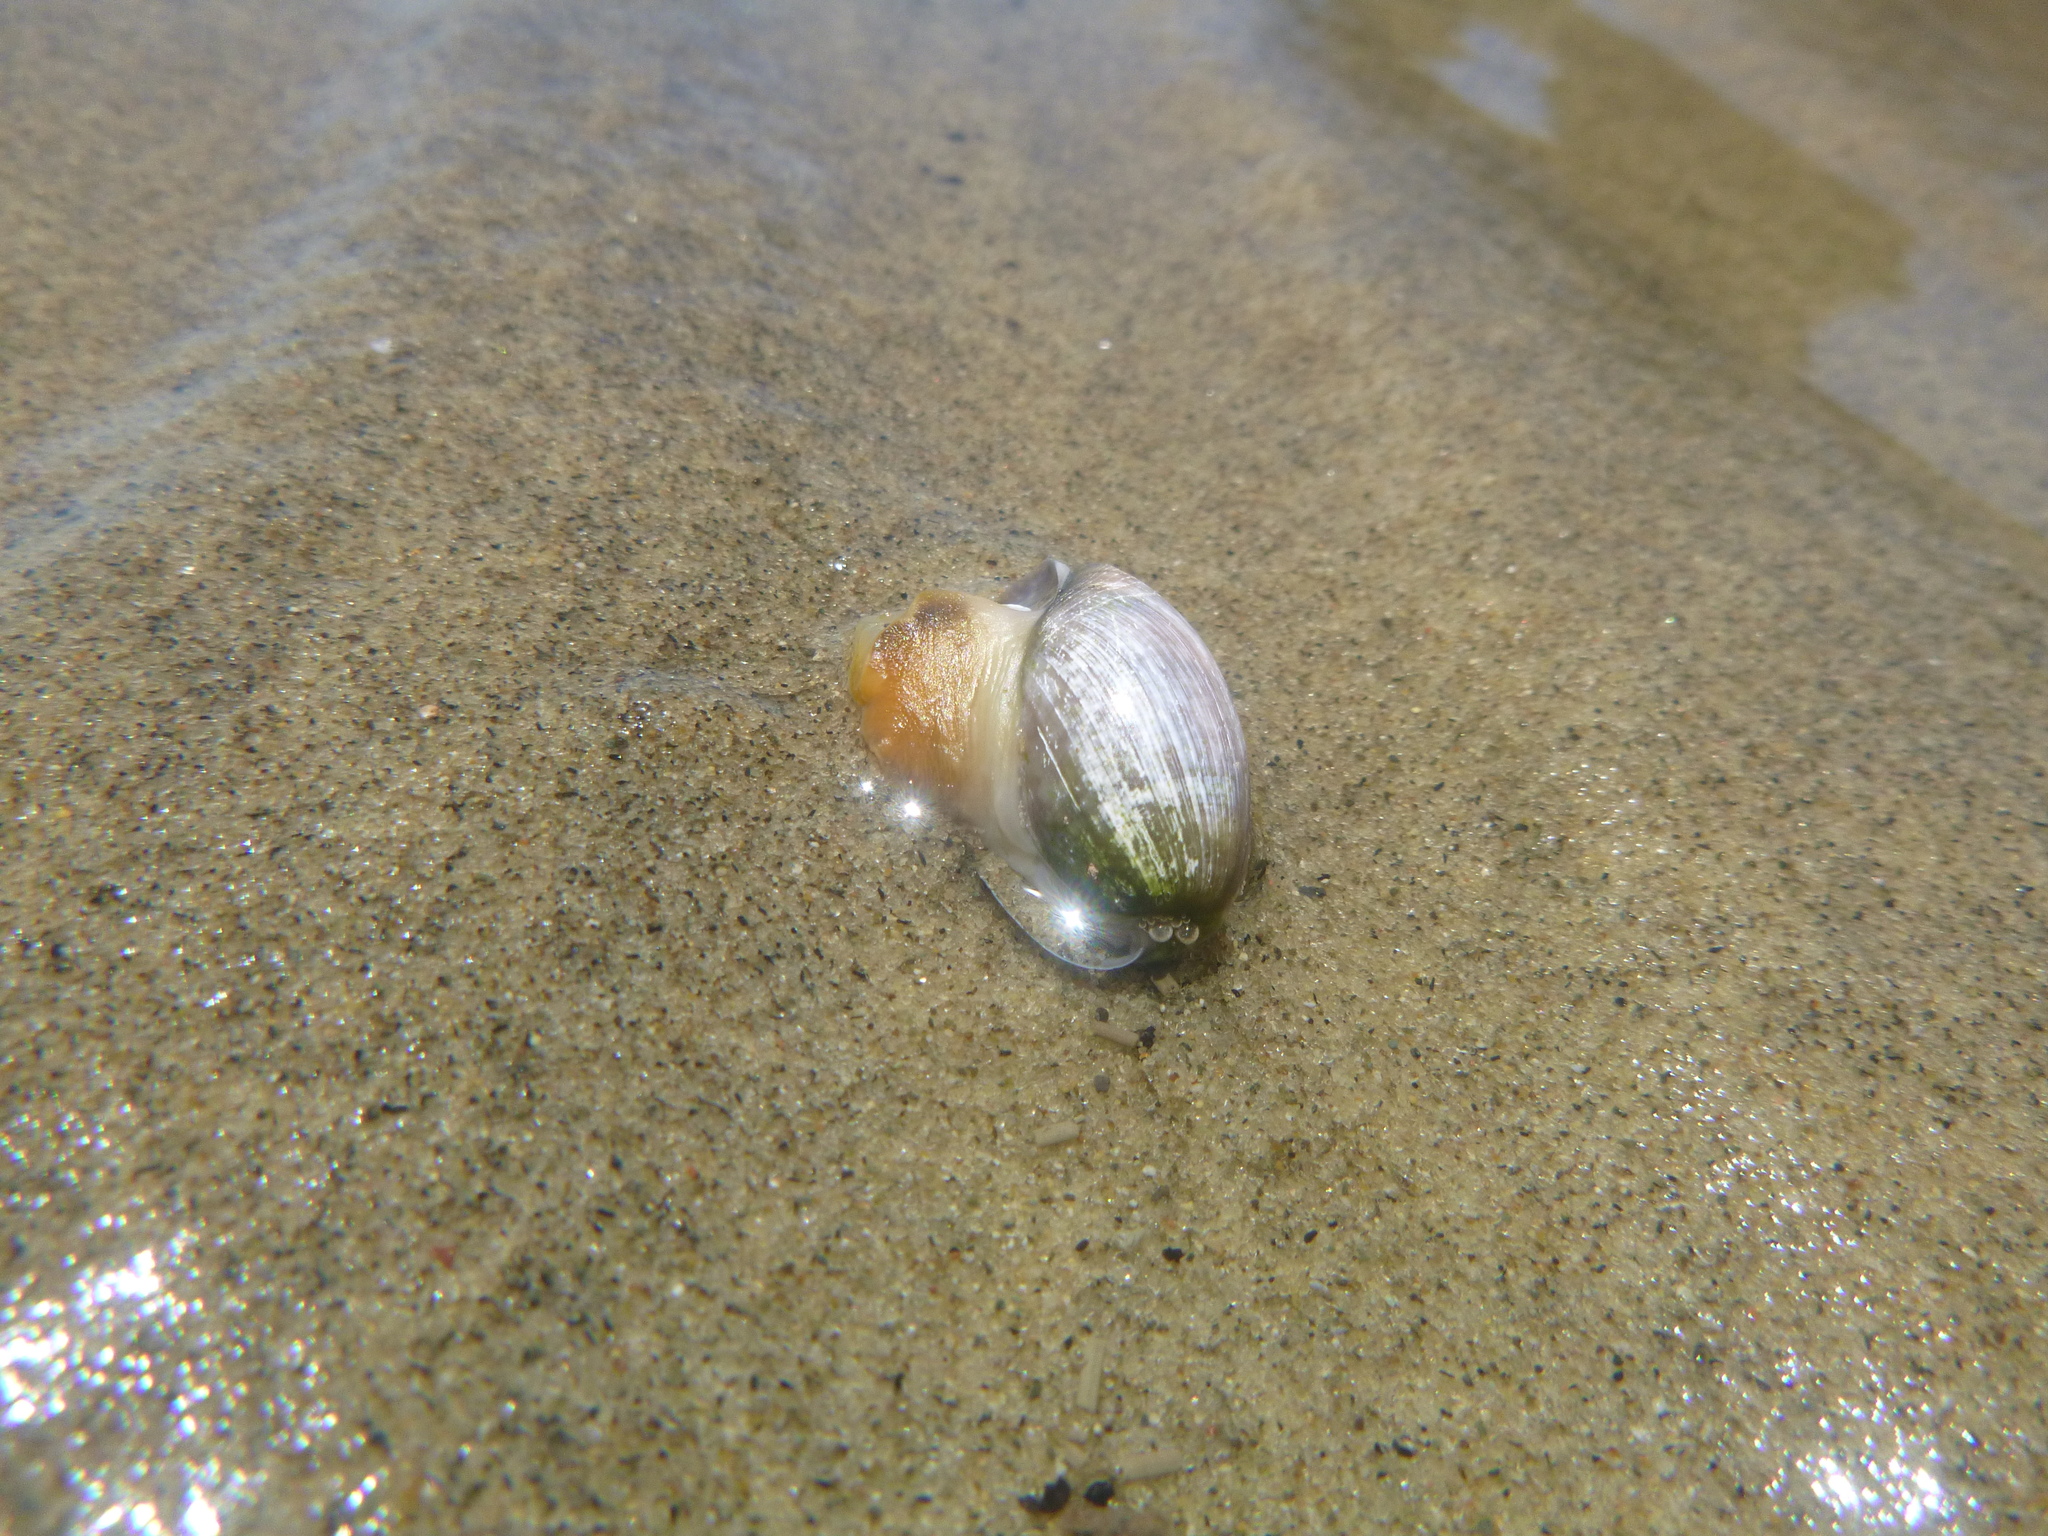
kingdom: Animalia
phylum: Mollusca
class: Gastropoda
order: Cephalaspidea
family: Bullidae
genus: Bulla
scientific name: Bulla quoyii
